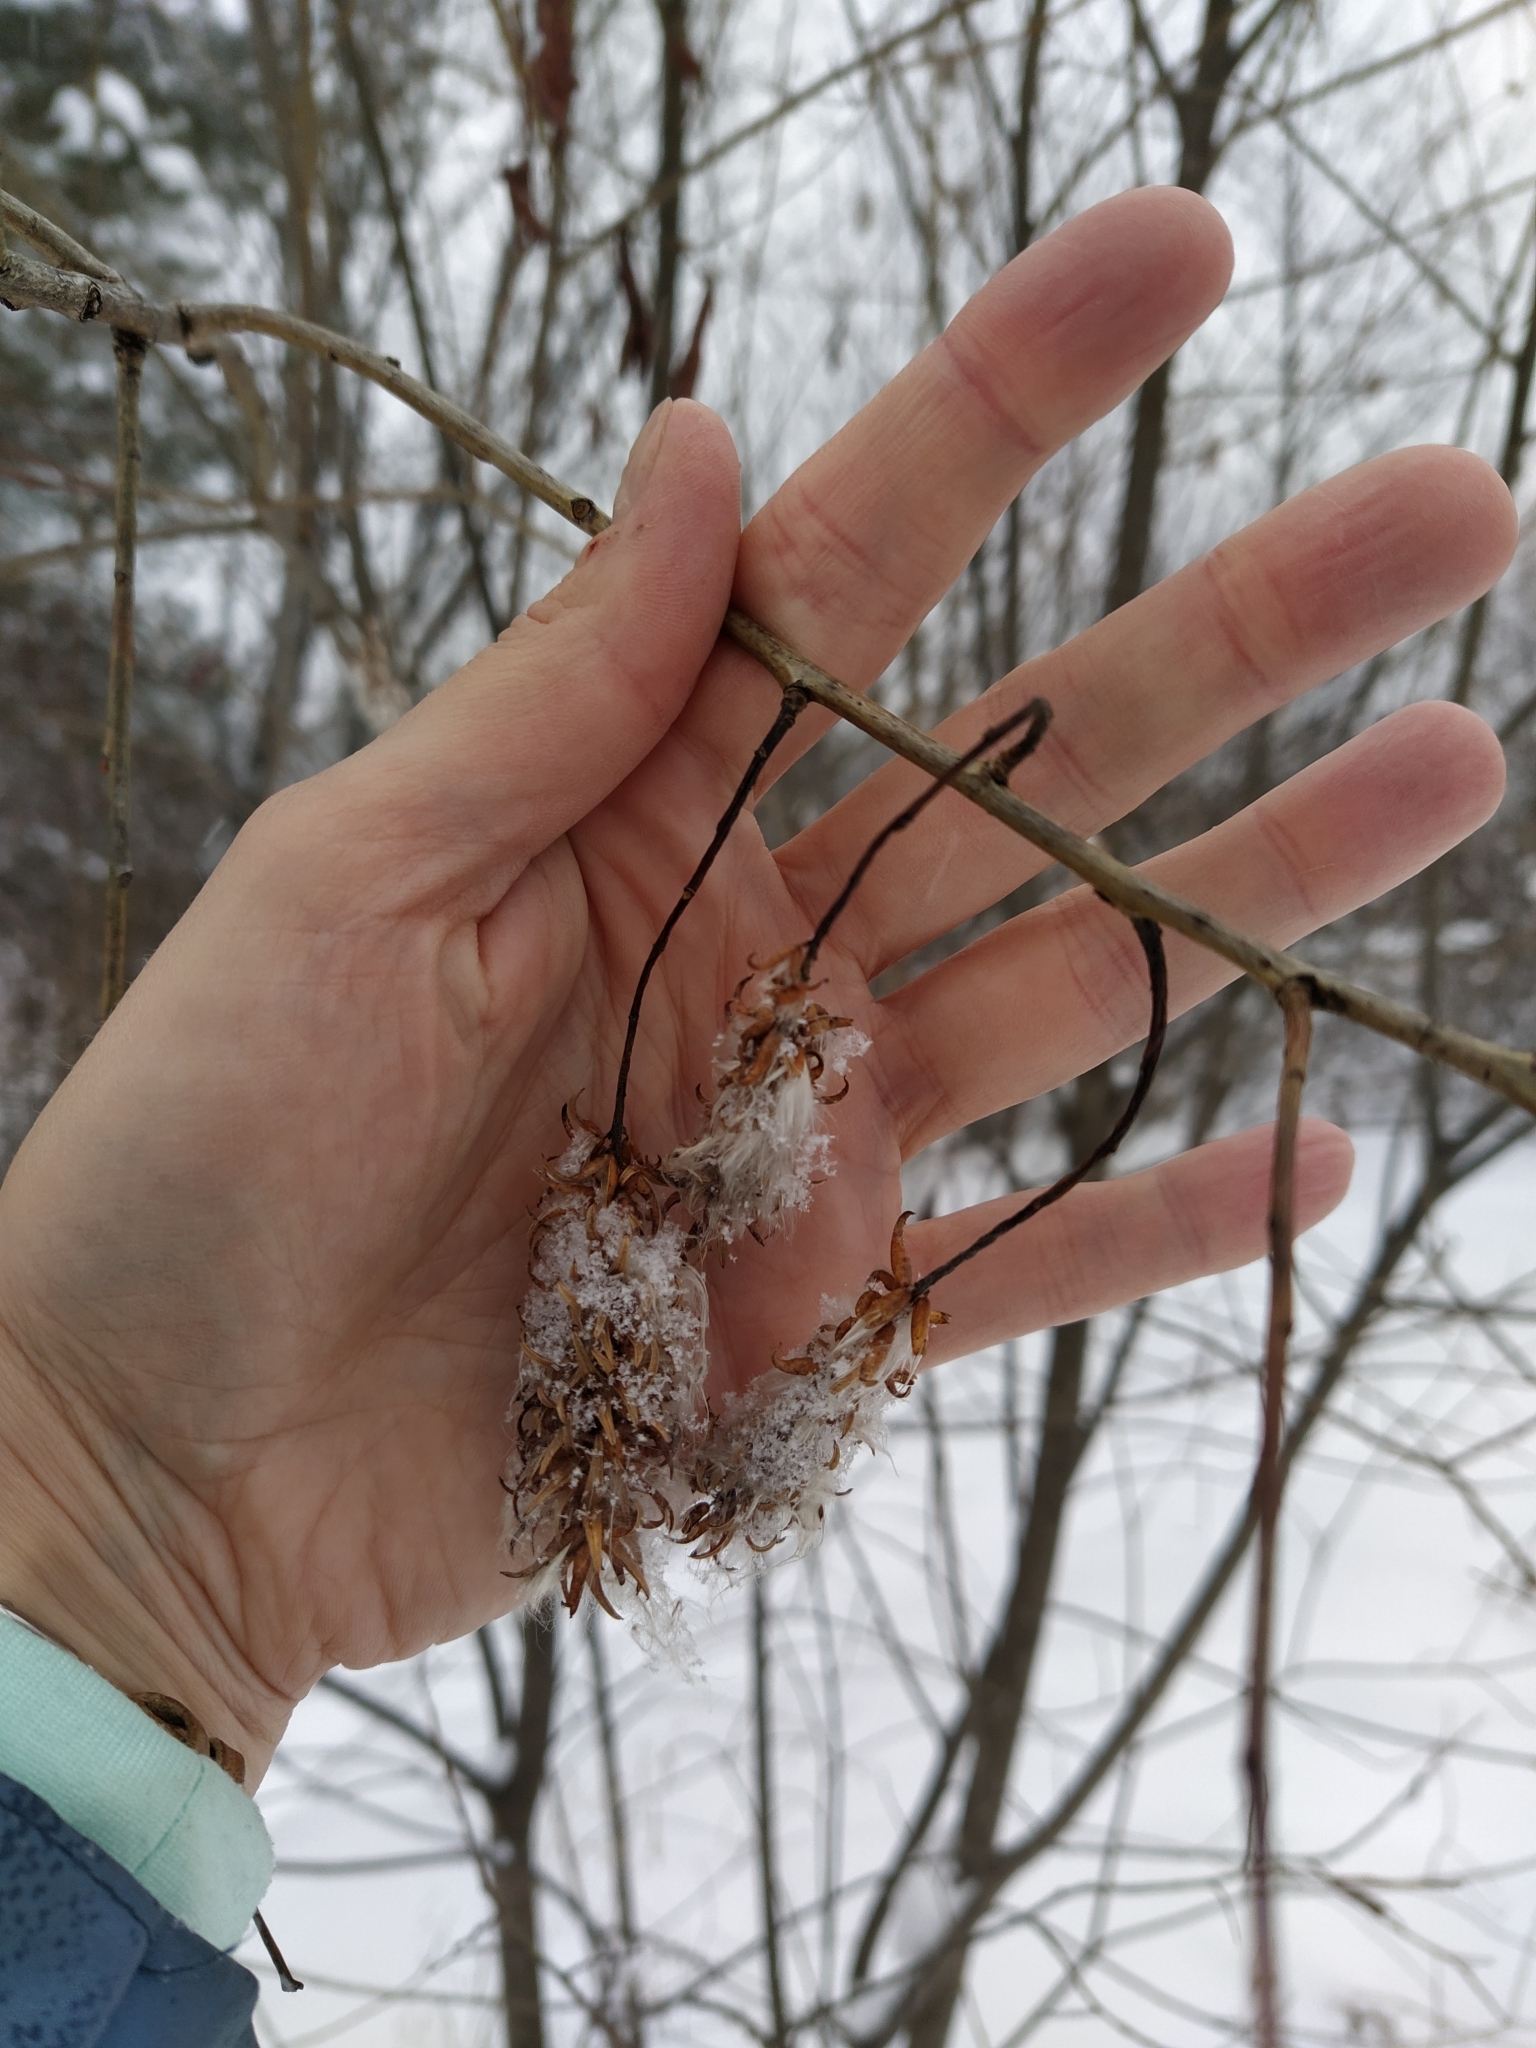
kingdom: Plantae
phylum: Tracheophyta
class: Magnoliopsida
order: Malpighiales
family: Salicaceae
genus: Salix
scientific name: Salix pentandra
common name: Bay willow
